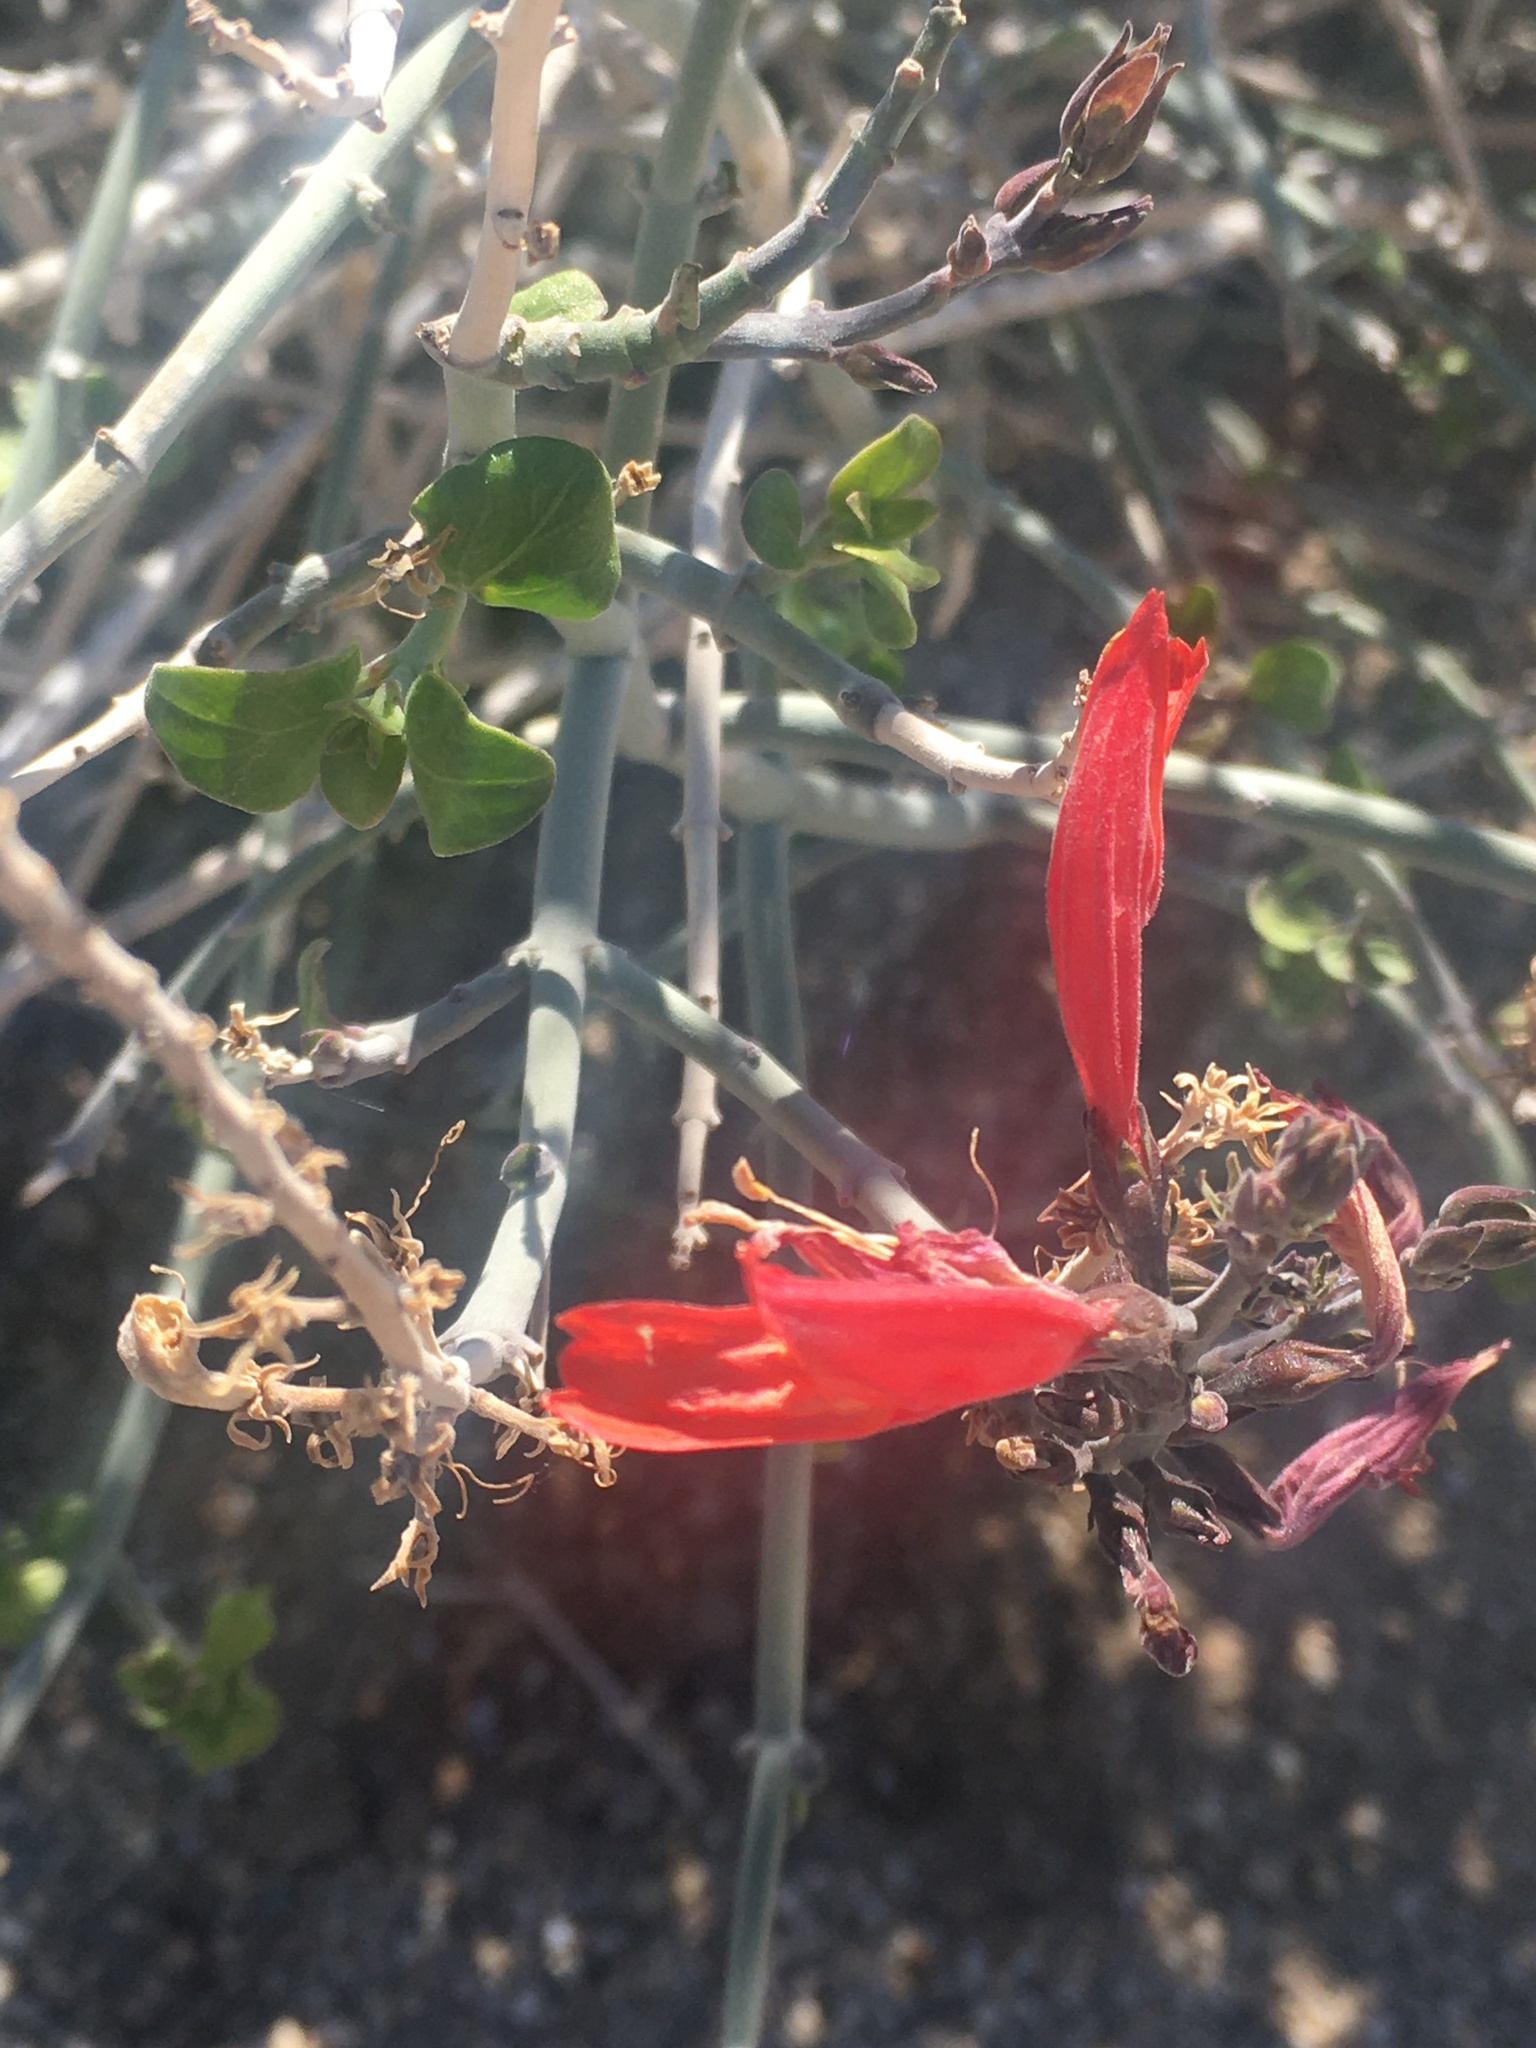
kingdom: Plantae
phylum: Tracheophyta
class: Magnoliopsida
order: Lamiales
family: Acanthaceae
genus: Justicia
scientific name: Justicia californica
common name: Chuparosa-honeysuckle
